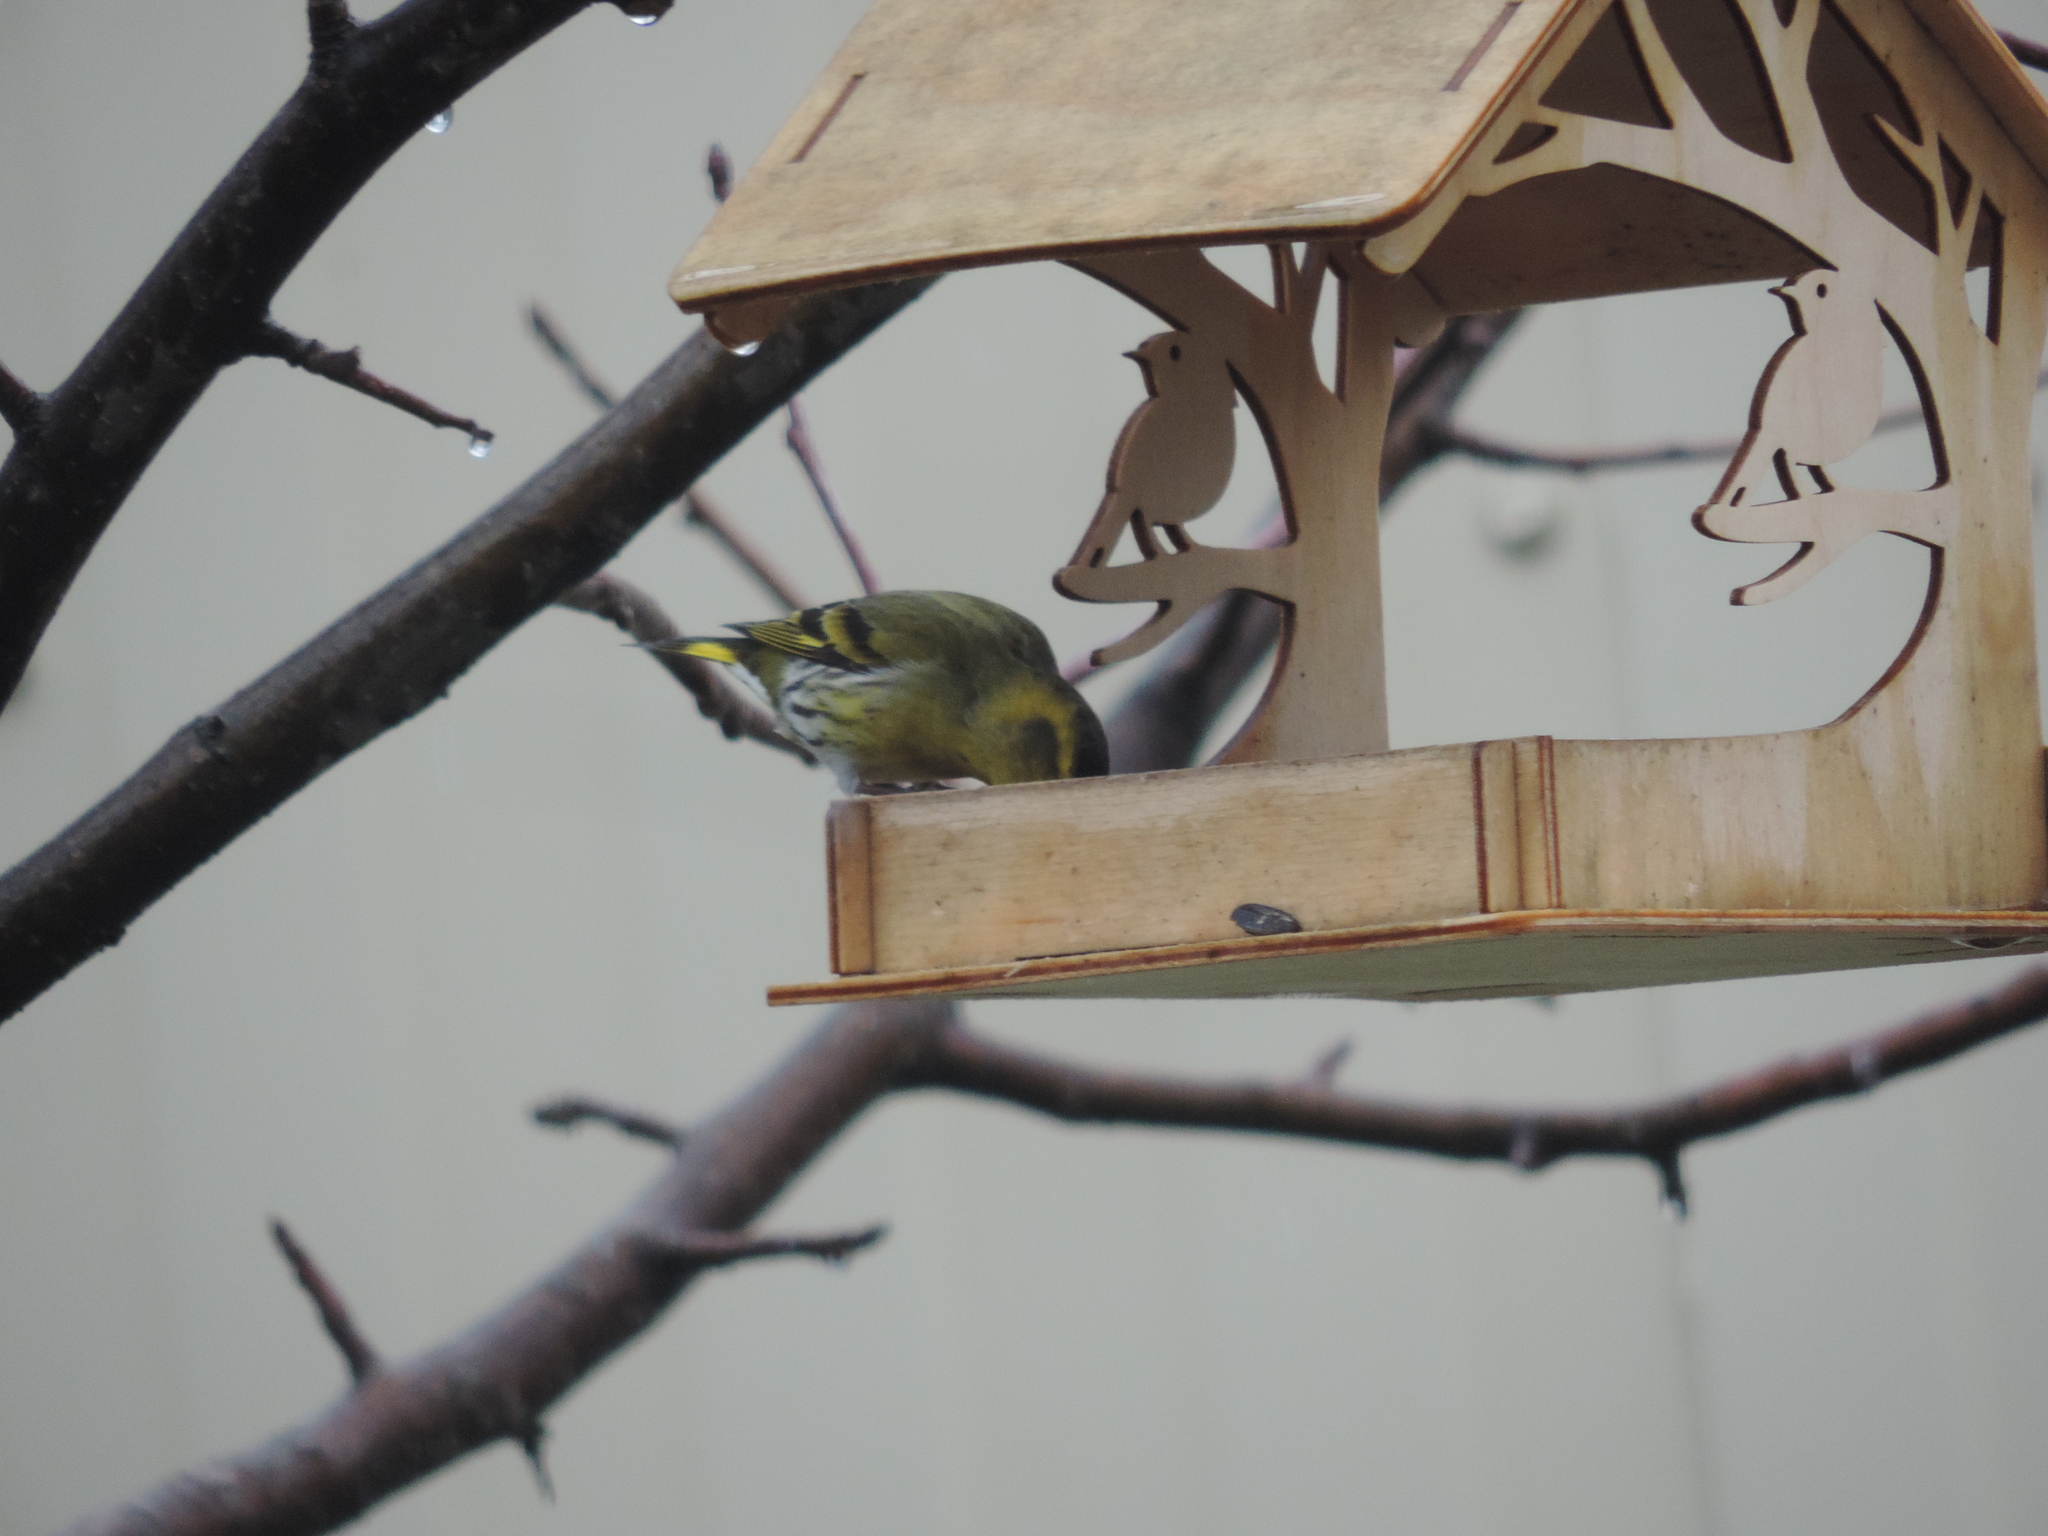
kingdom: Animalia
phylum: Chordata
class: Aves
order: Passeriformes
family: Fringillidae
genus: Spinus
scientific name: Spinus spinus
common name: Eurasian siskin
